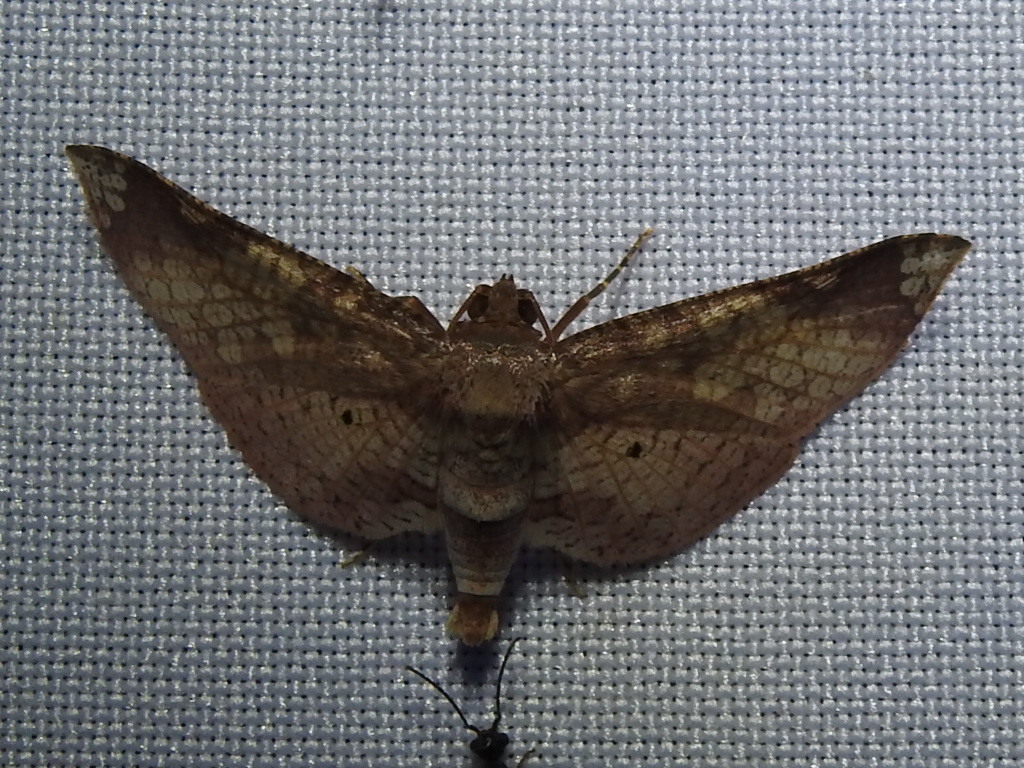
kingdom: Animalia
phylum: Arthropoda
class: Insecta
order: Lepidoptera
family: Thyrididae
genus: Microsca
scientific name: Microsca hedilalis
